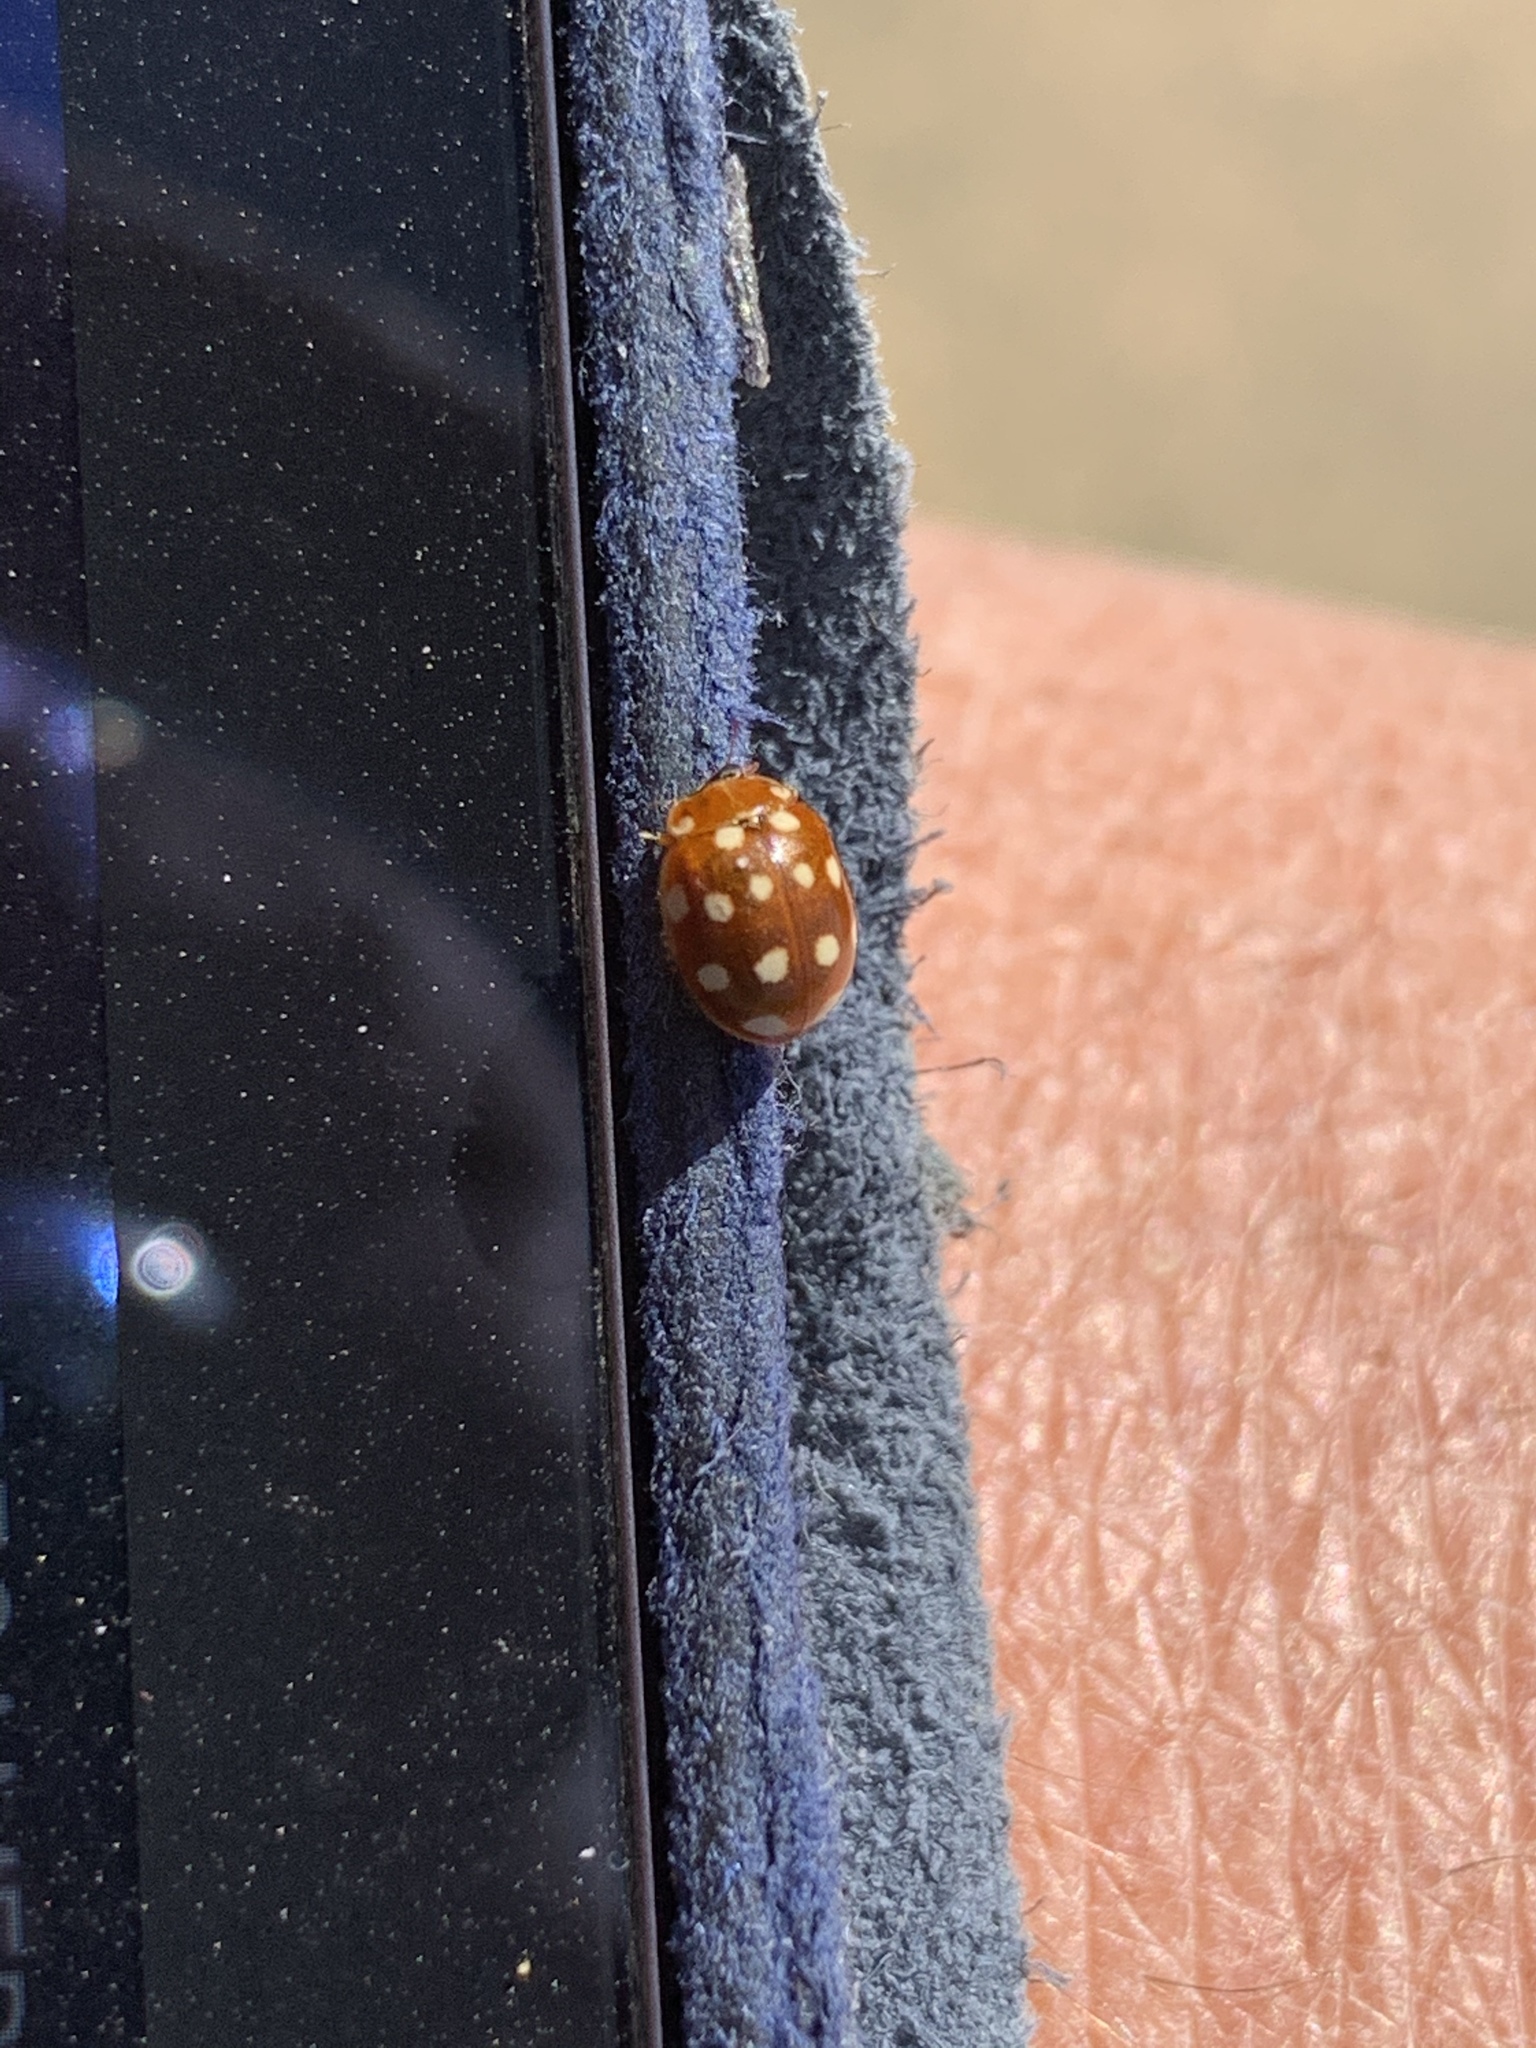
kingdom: Animalia
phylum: Arthropoda
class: Insecta
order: Coleoptera
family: Coccinellidae
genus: Calvia
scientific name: Calvia quatuordecimguttata
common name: Cream-spot ladybird
